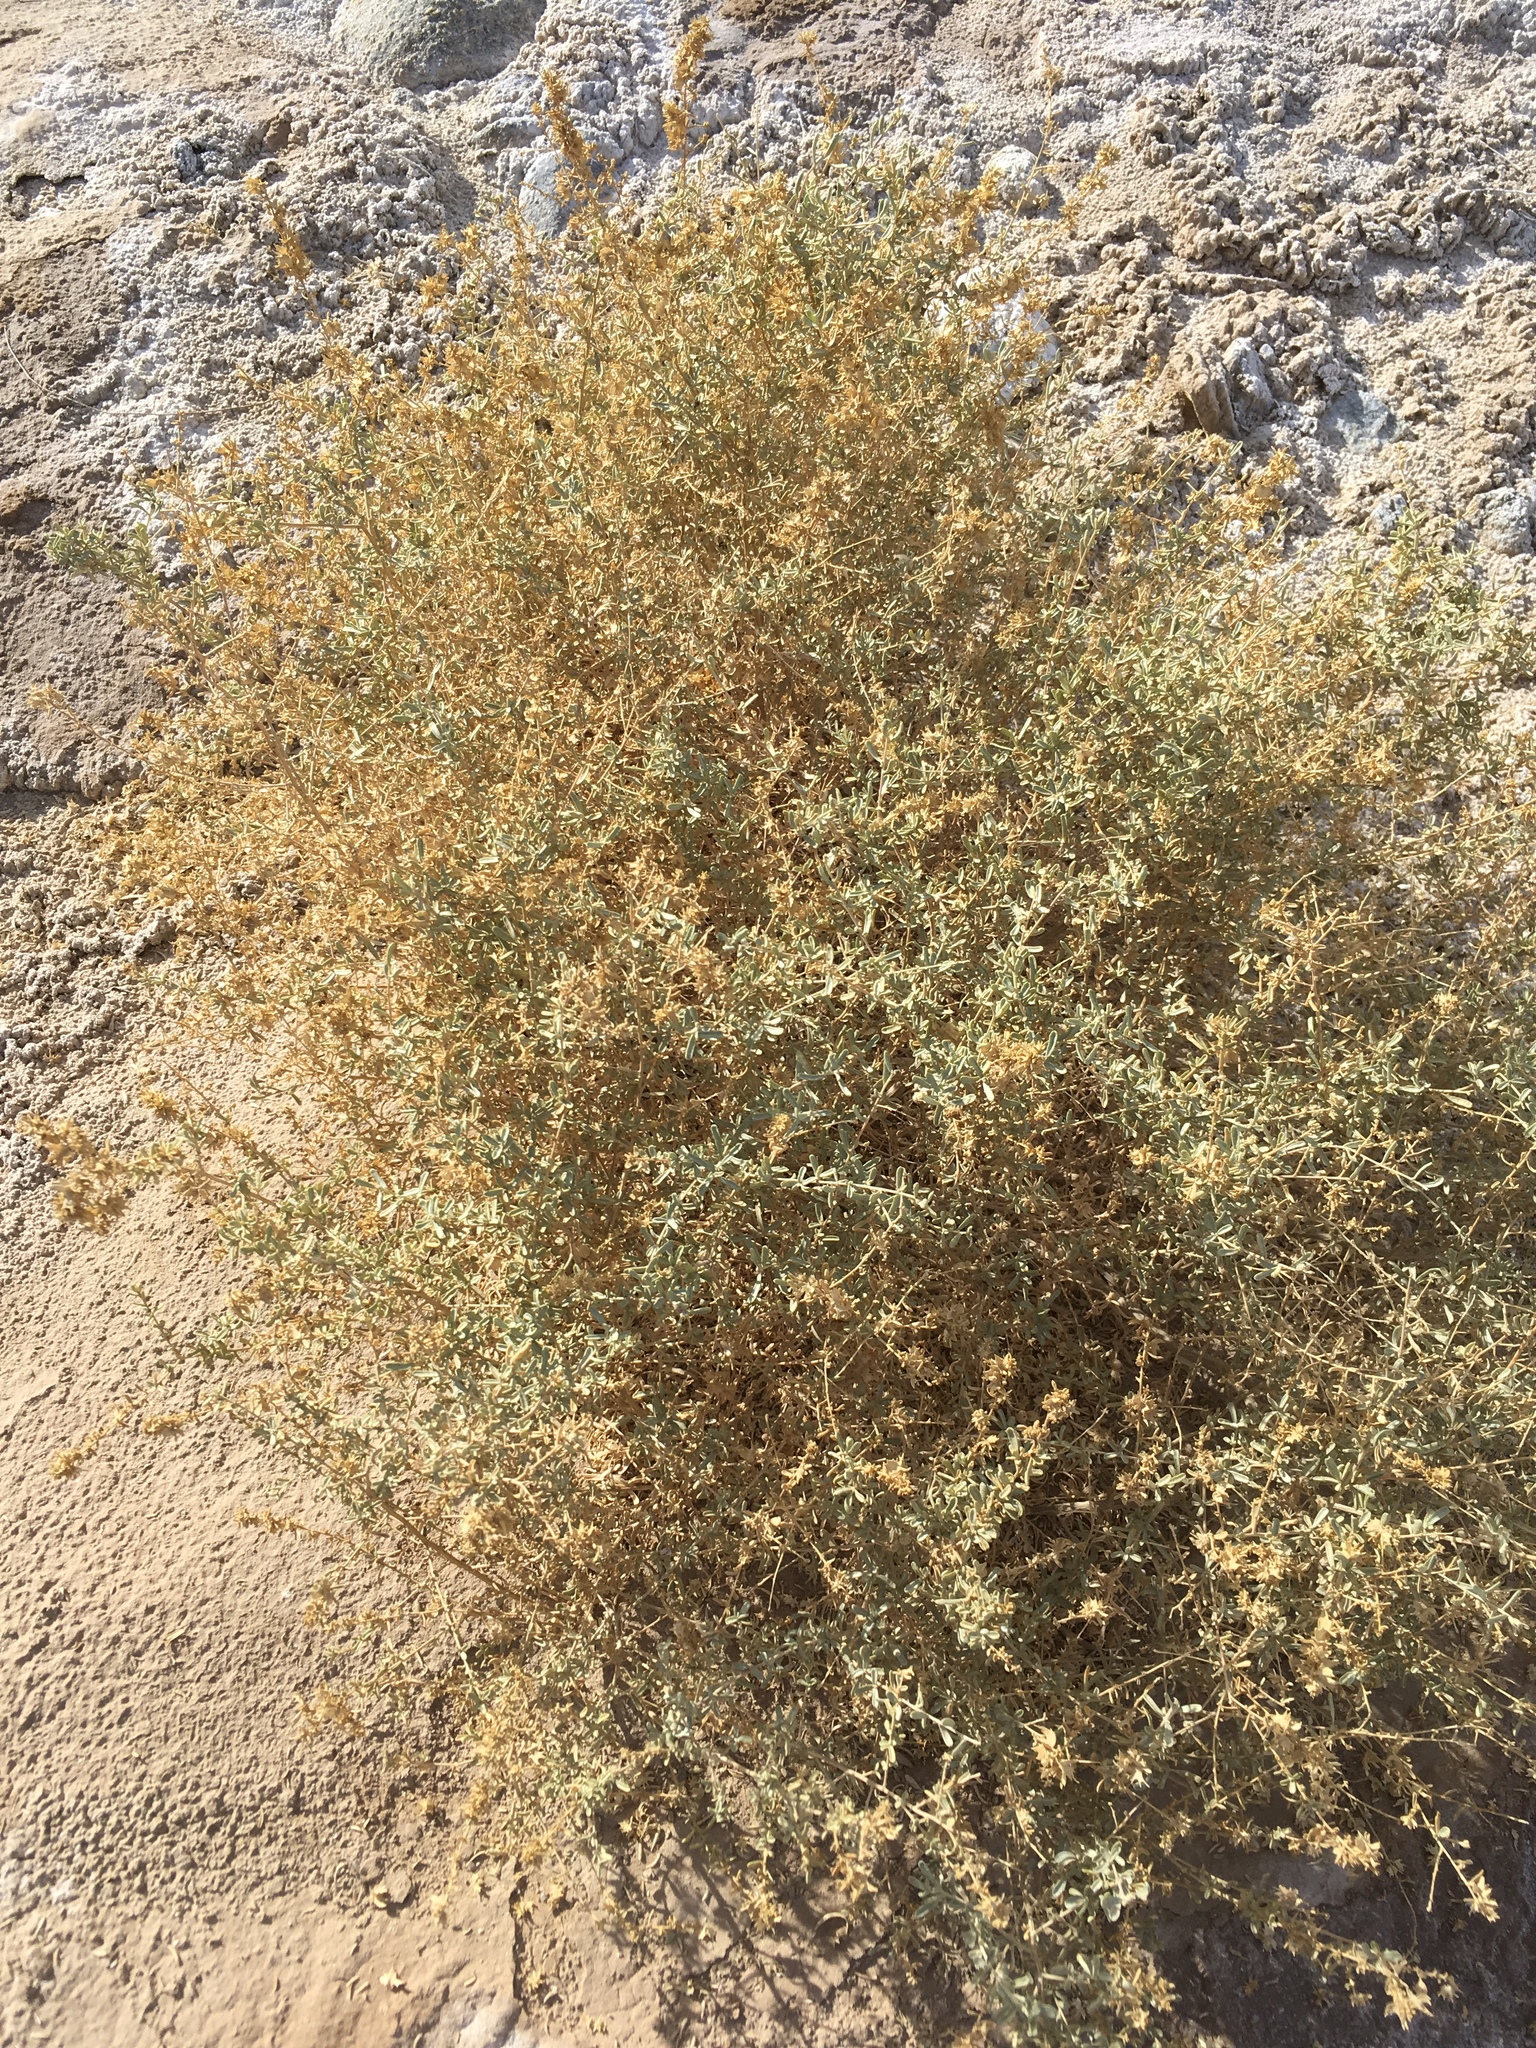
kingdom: Plantae
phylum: Tracheophyta
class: Magnoliopsida
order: Caryophyllales
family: Amaranthaceae
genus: Atriplex
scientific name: Atriplex canescens
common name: Four-wing saltbush
